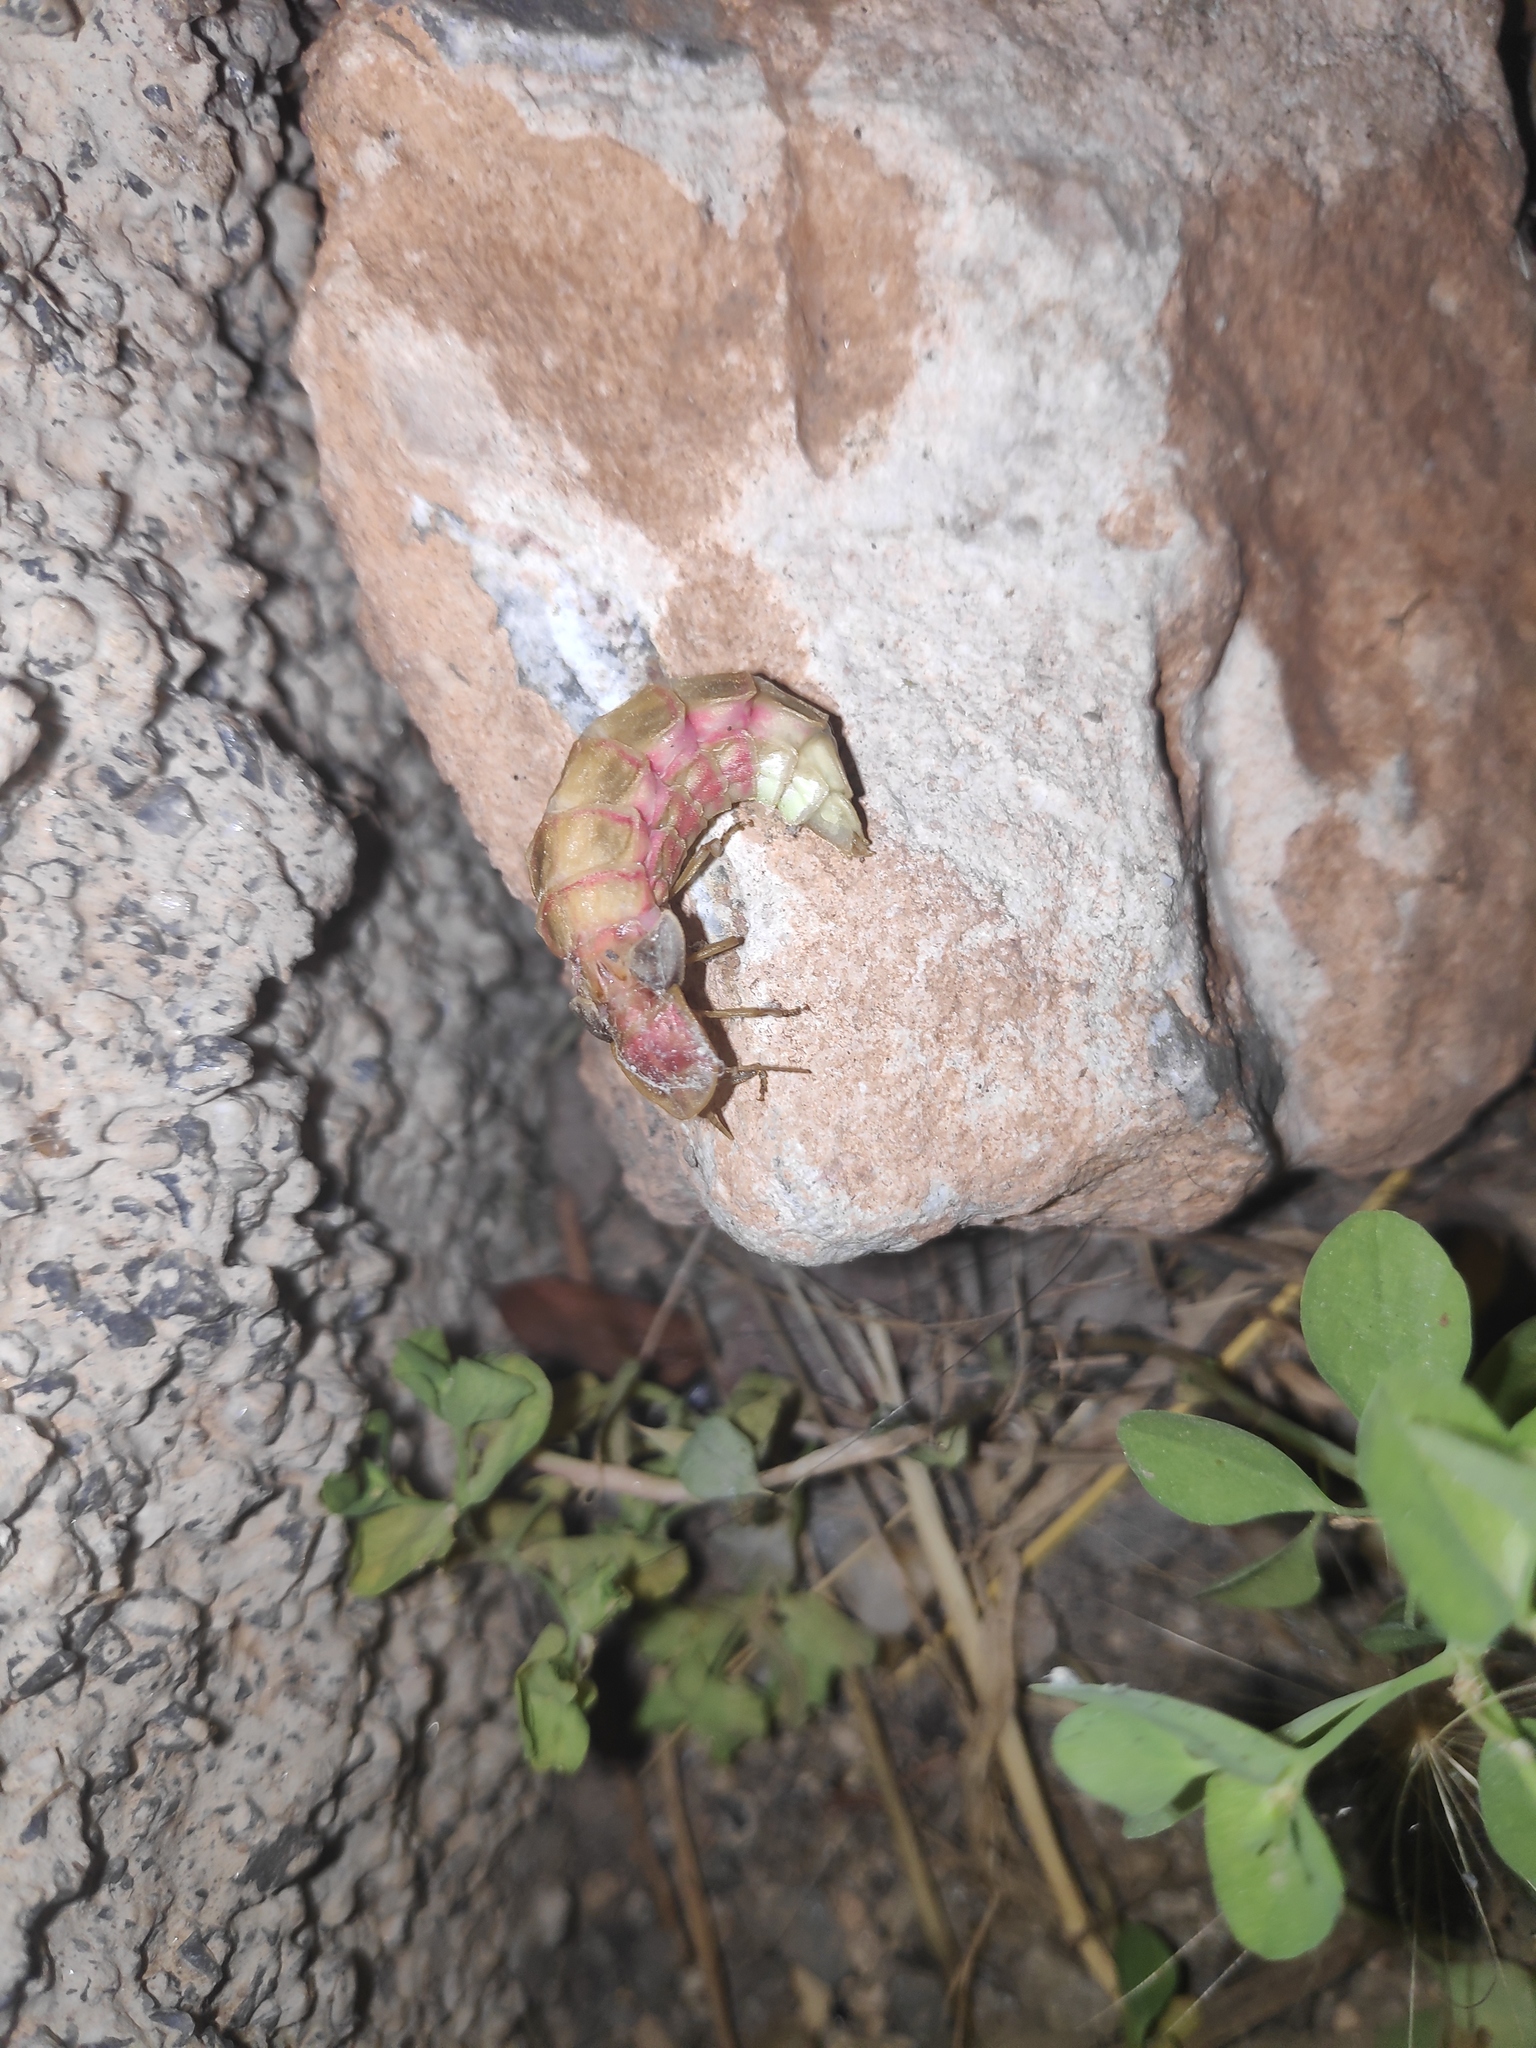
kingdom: Animalia
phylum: Arthropoda
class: Insecta
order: Coleoptera
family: Lampyridae
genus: Nyctophila
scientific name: Nyctophila reichii
